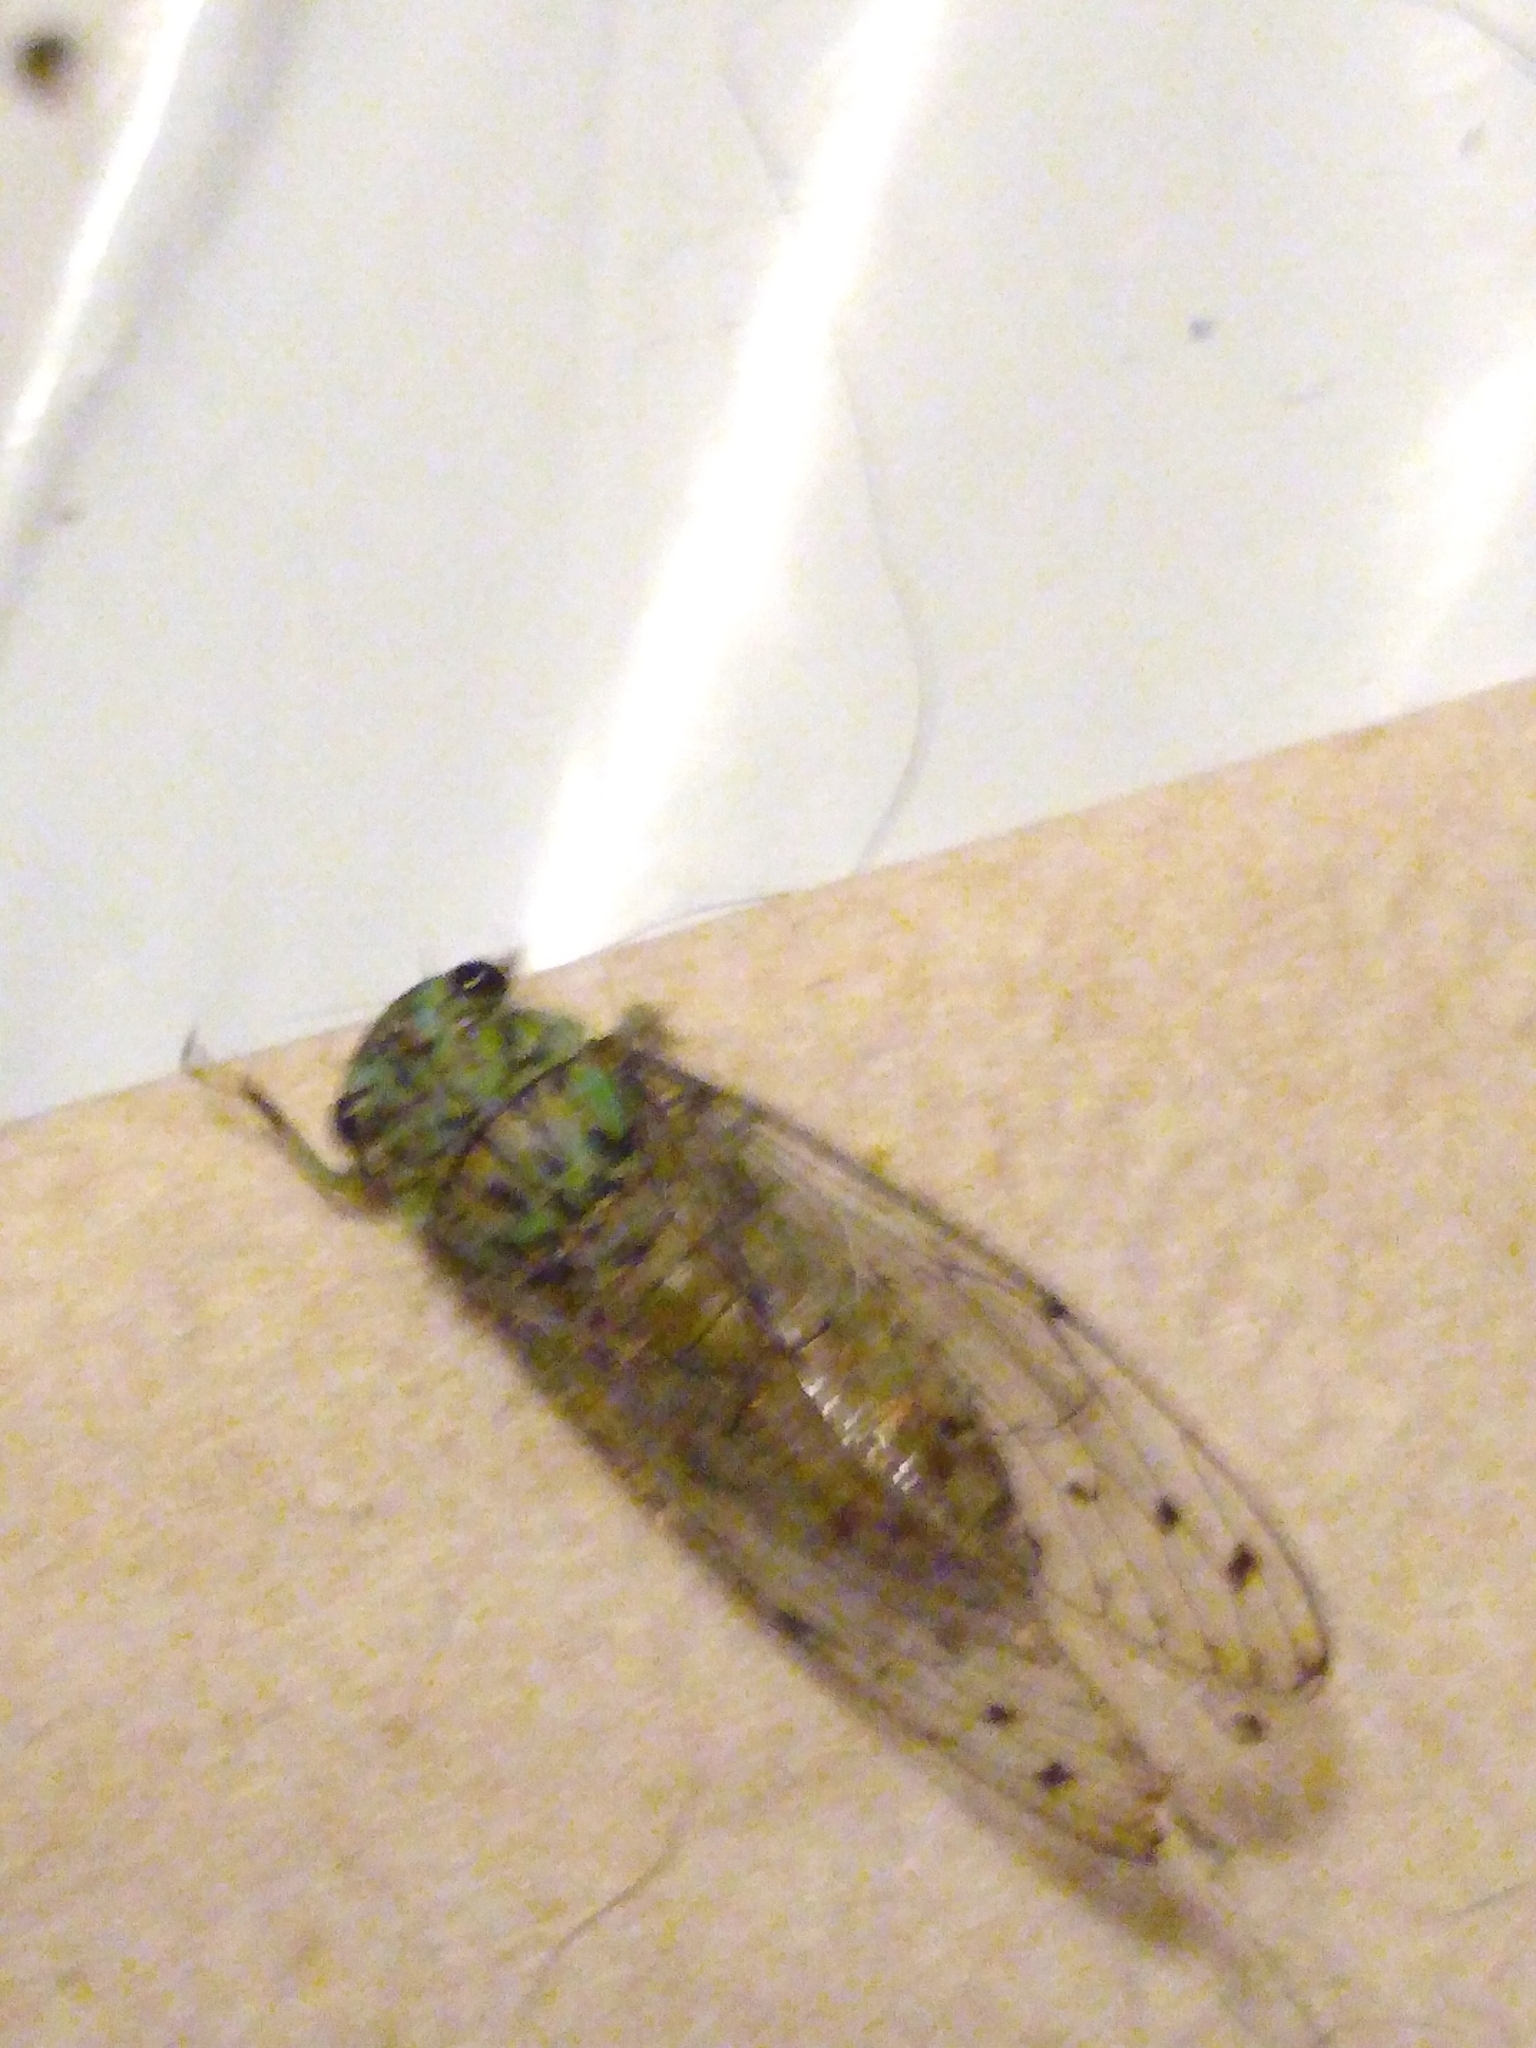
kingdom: Animalia
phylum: Arthropoda
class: Insecta
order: Hemiptera
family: Cicadidae
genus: Neocicada
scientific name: Neocicada hieroglyphica
